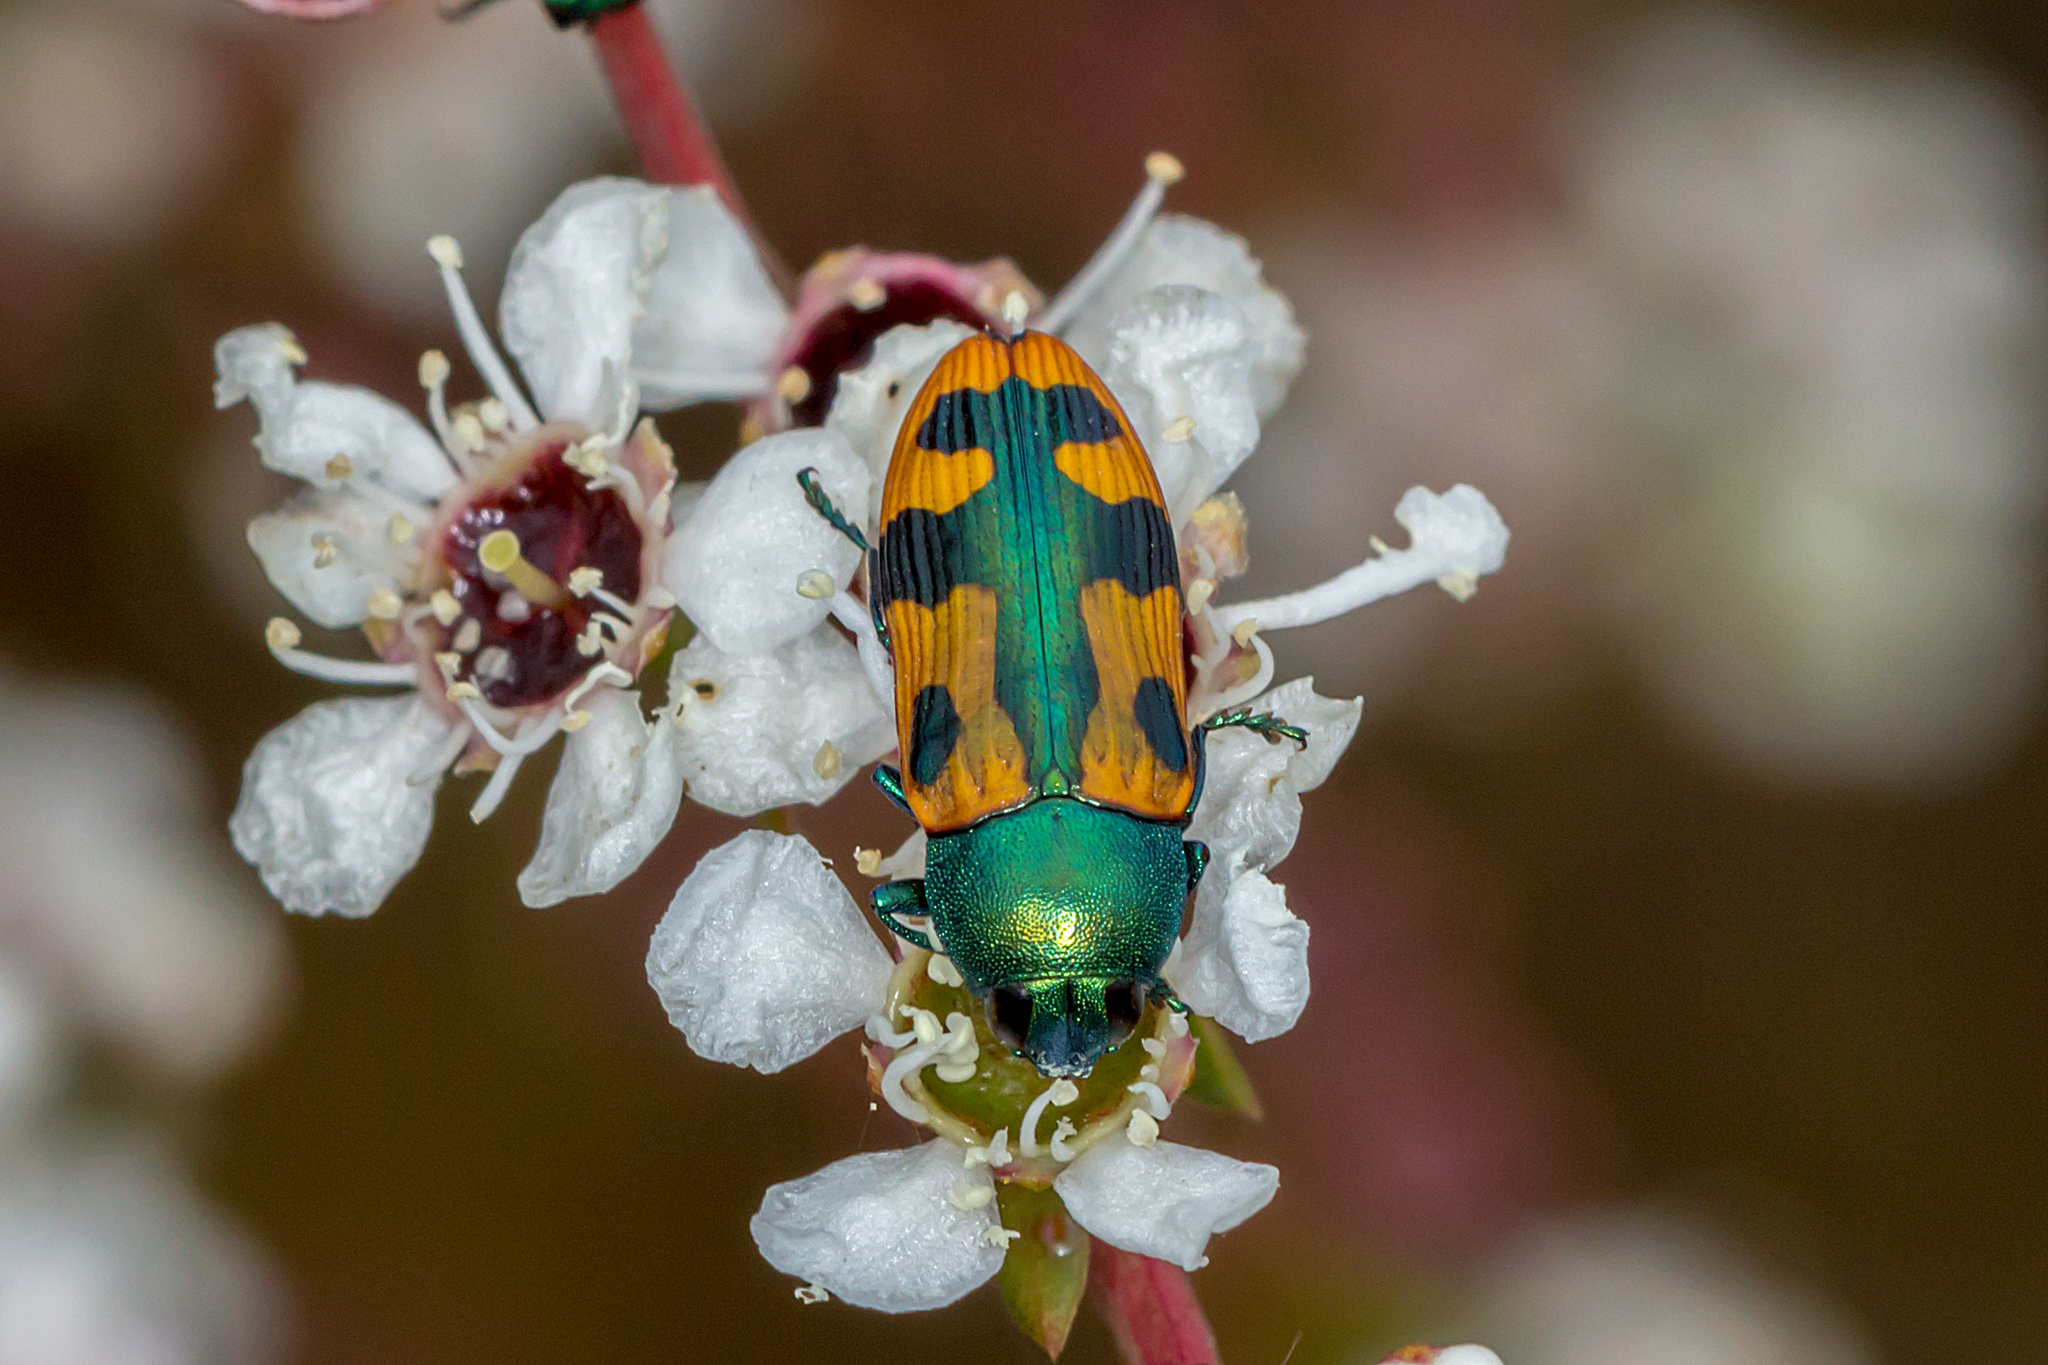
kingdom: Animalia
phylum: Arthropoda
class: Insecta
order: Coleoptera
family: Buprestidae
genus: Castiarina
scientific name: Castiarina scalaris
